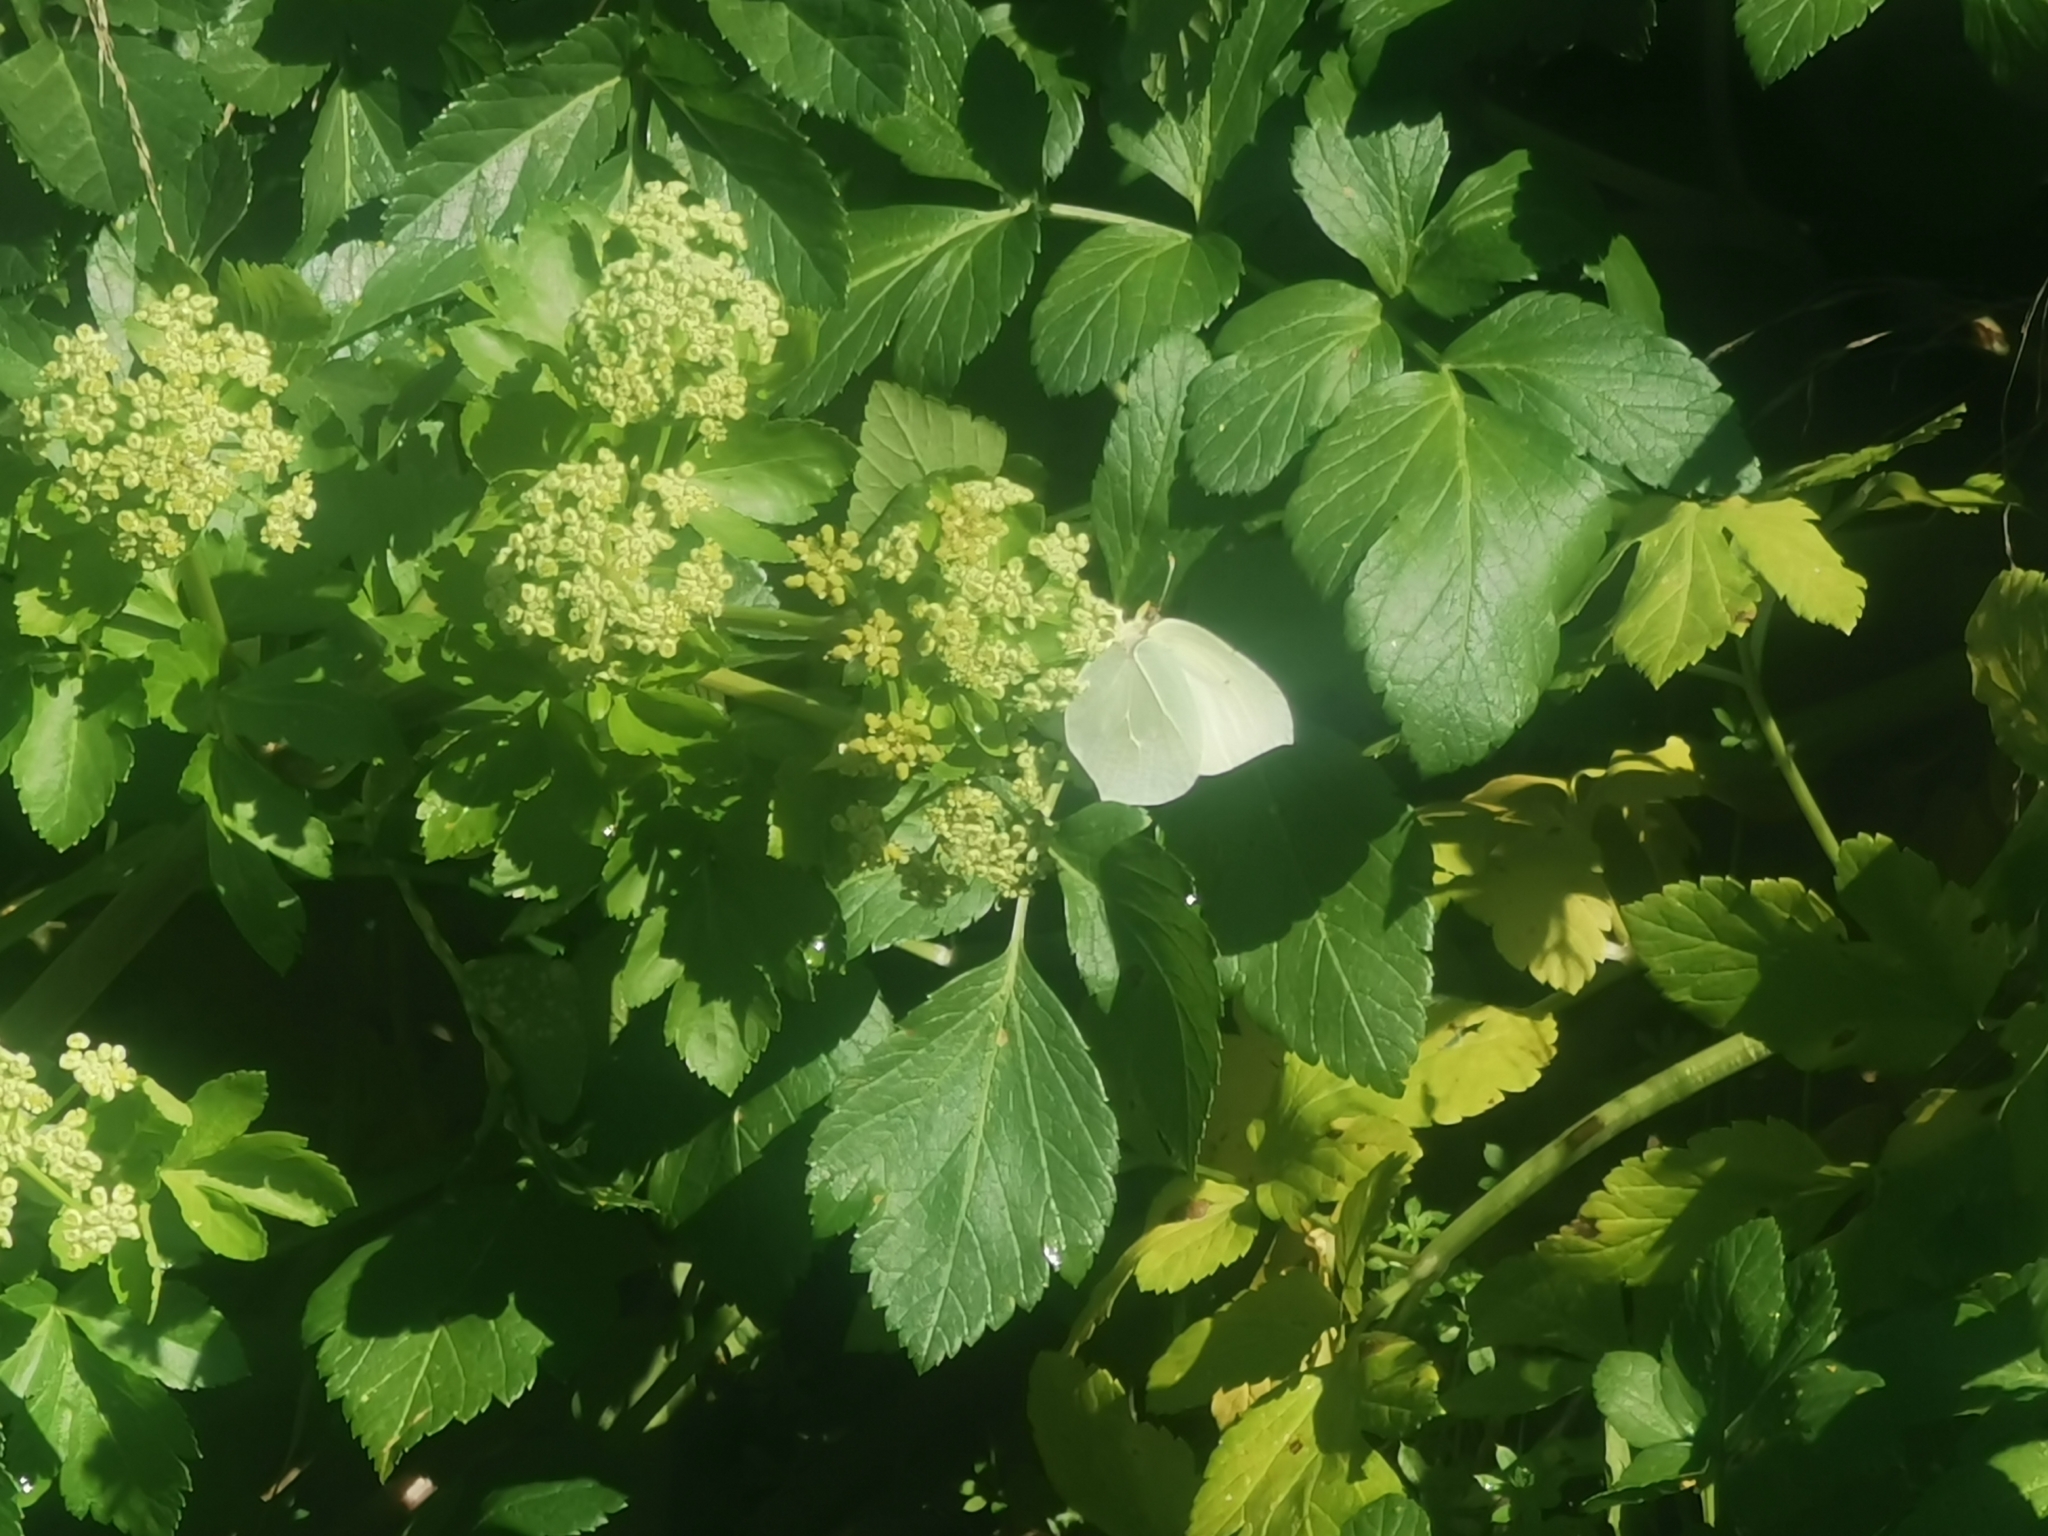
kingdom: Animalia
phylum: Arthropoda
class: Insecta
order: Lepidoptera
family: Pieridae
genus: Gonepteryx
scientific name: Gonepteryx cleopatra
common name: Cleopatra
